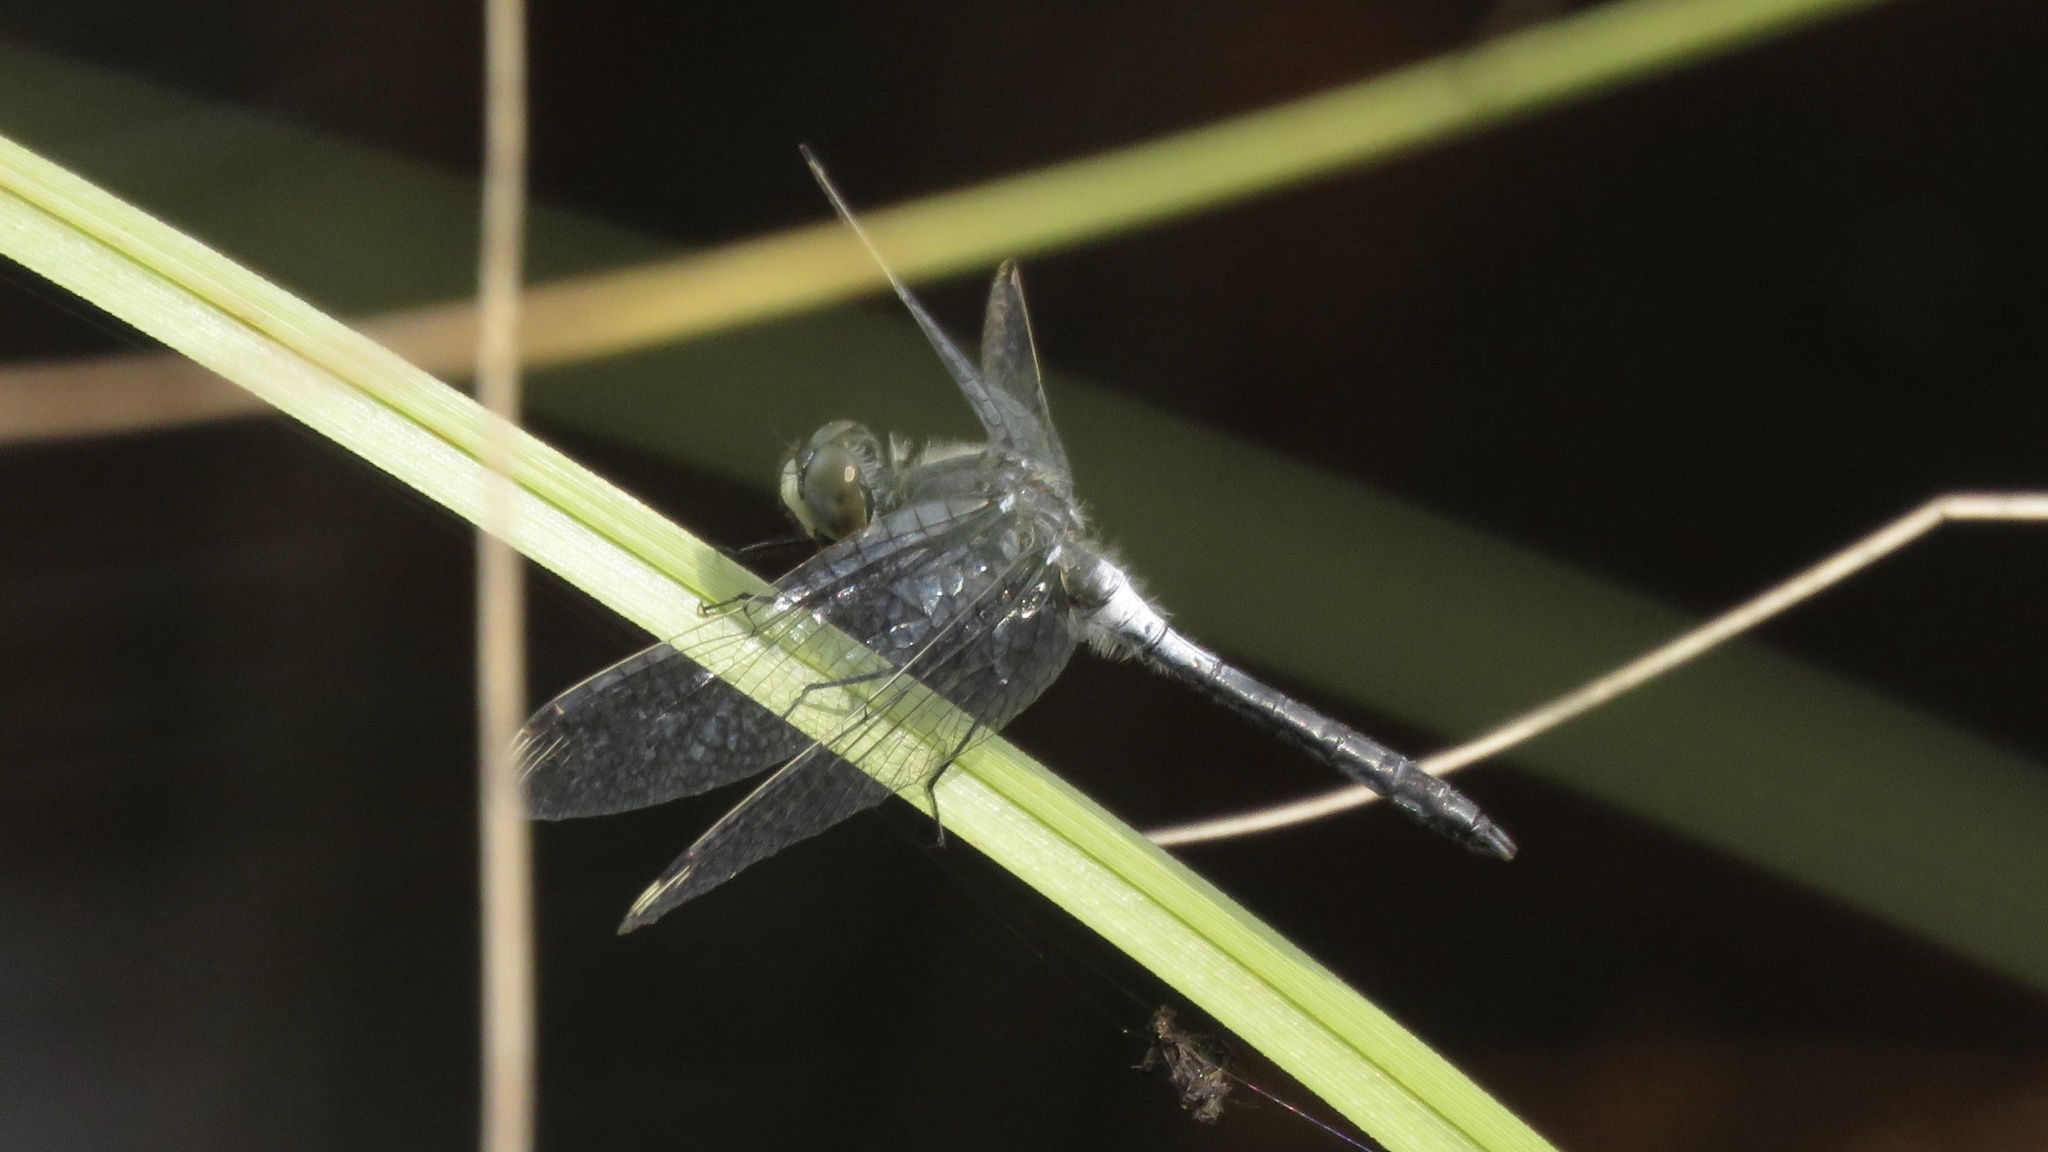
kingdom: Animalia
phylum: Arthropoda
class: Insecta
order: Odonata
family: Libellulidae
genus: Leucorrhinia
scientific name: Leucorrhinia frigida
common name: Frosted whiteface
